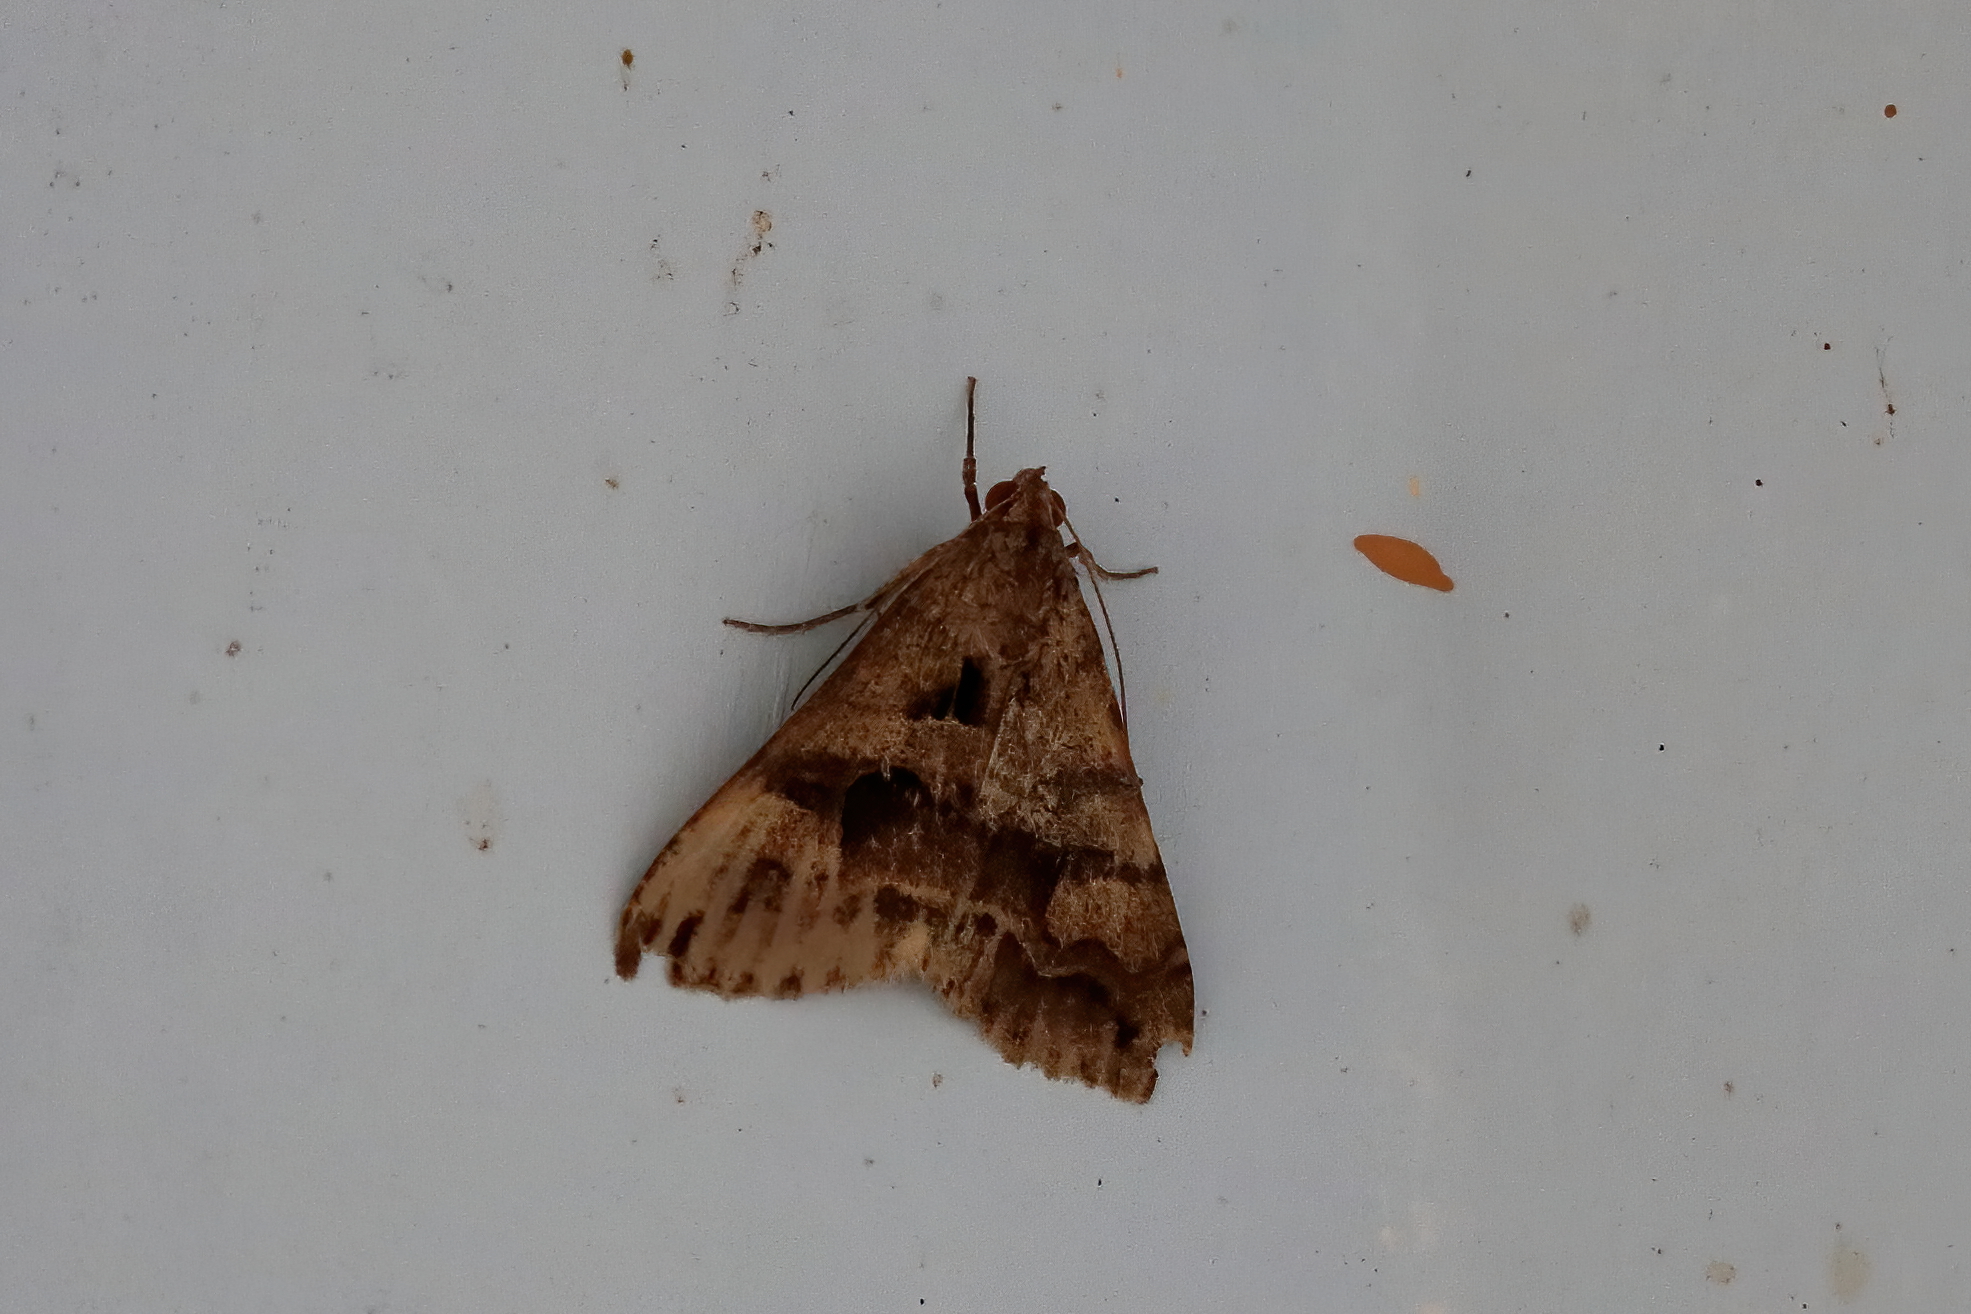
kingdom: Animalia
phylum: Arthropoda
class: Insecta
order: Lepidoptera
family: Erebidae
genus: Melipotis
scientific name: Melipotis cellaris
